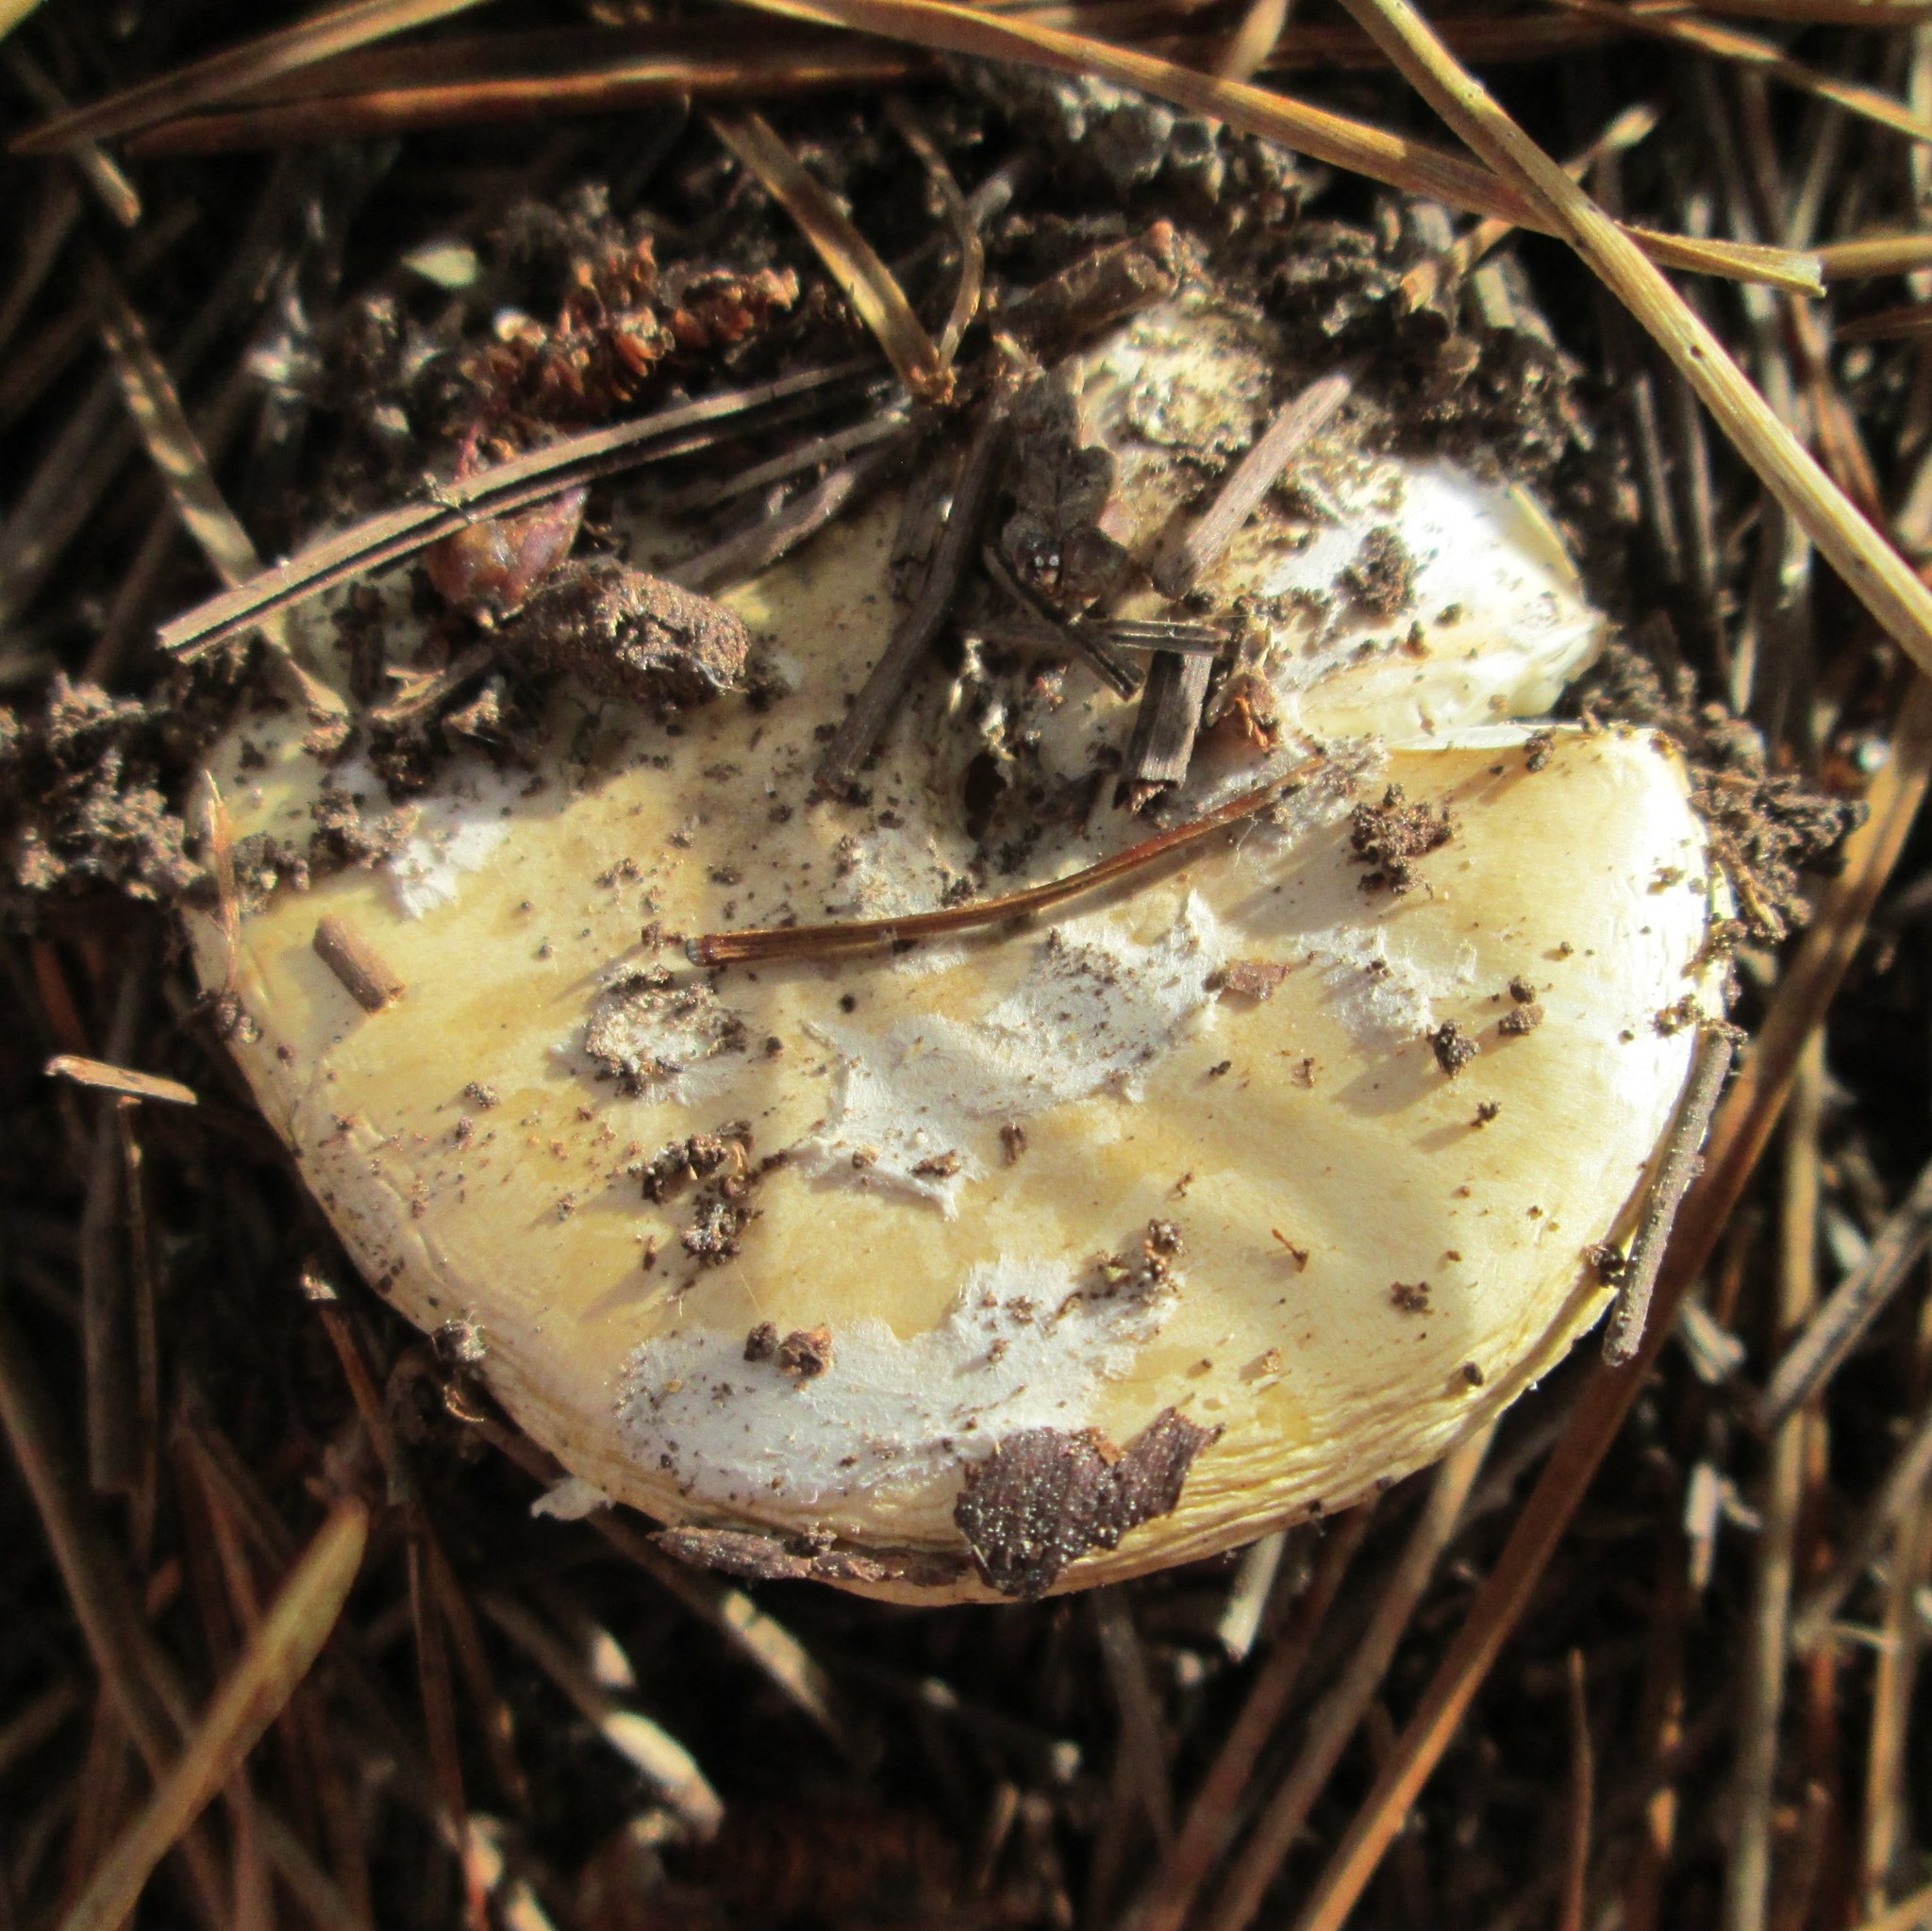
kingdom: Fungi
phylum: Basidiomycota
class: Agaricomycetes
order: Agaricales
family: Amanitaceae
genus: Amanita
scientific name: Amanita gemmata
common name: Jewelled amanita
